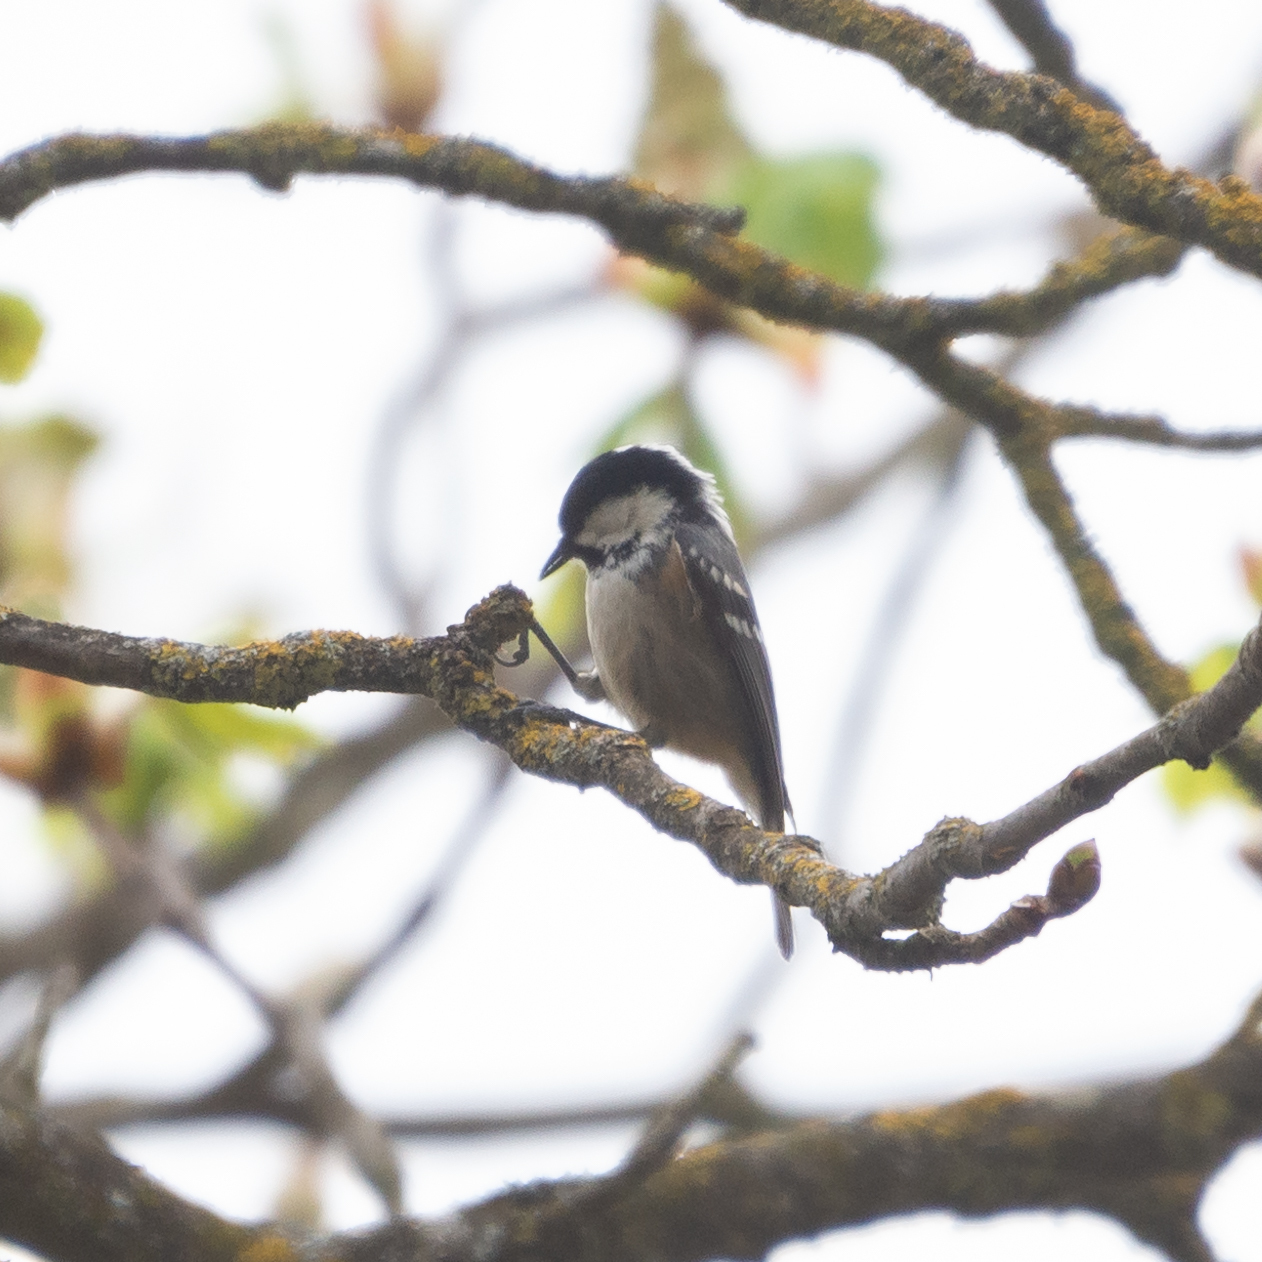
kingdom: Animalia
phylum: Chordata
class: Aves
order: Passeriformes
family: Paridae
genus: Periparus
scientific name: Periparus ater
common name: Coal tit
